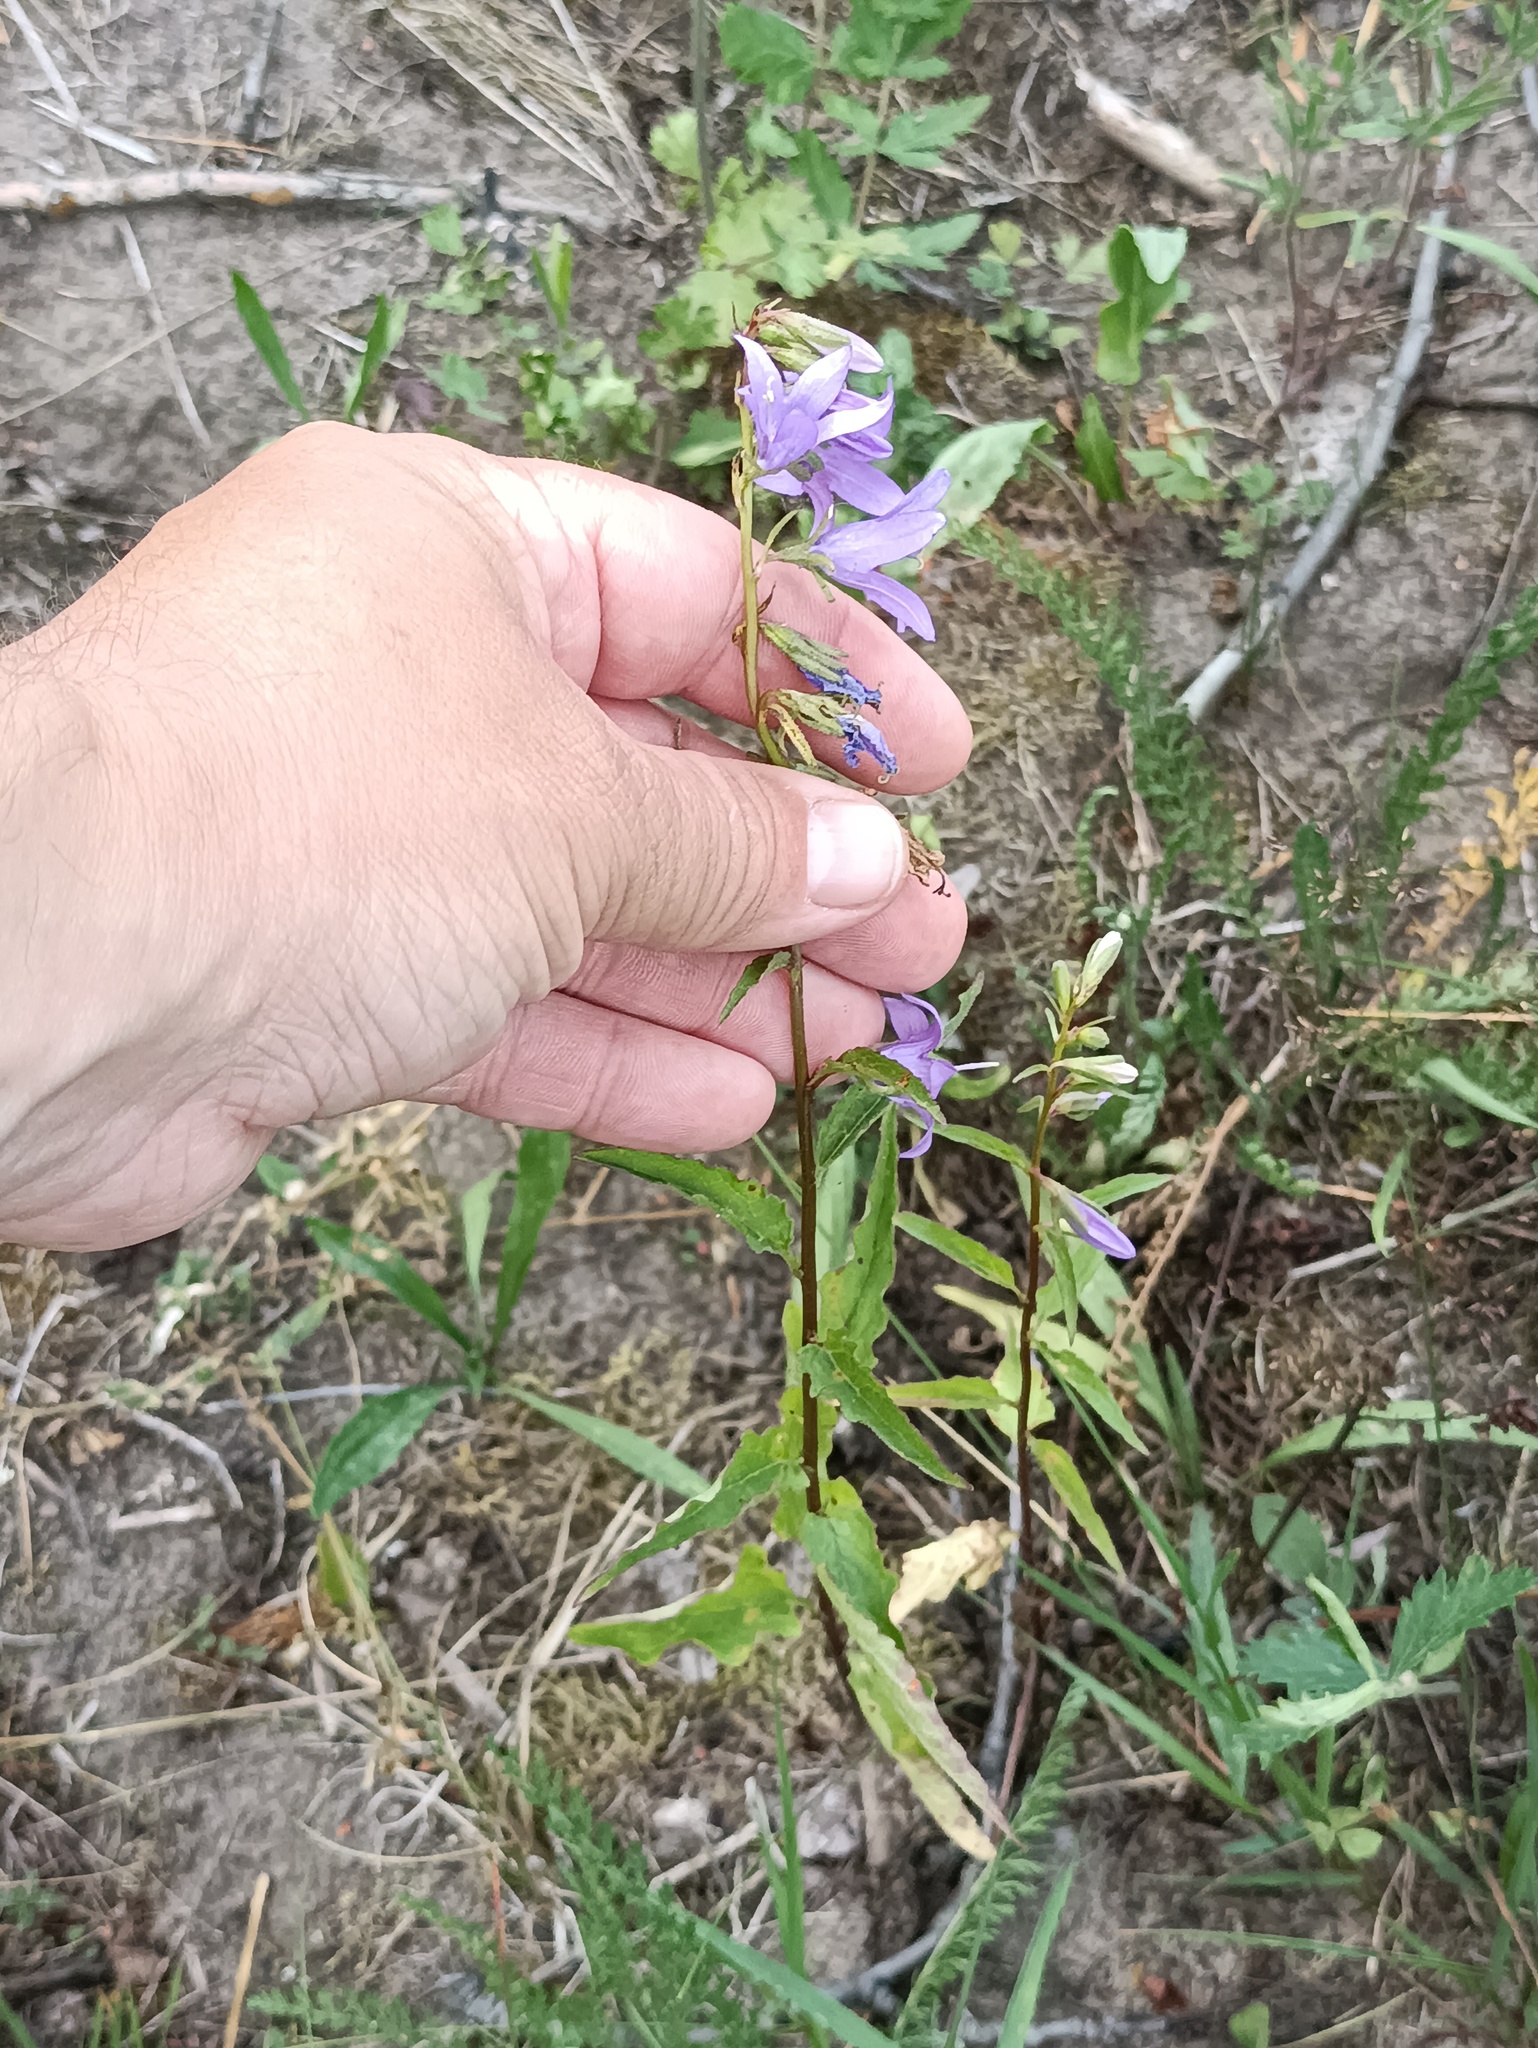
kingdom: Plantae
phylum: Tracheophyta
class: Magnoliopsida
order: Asterales
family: Campanulaceae
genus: Campanula
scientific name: Campanula rapunculoides
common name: Creeping bellflower
